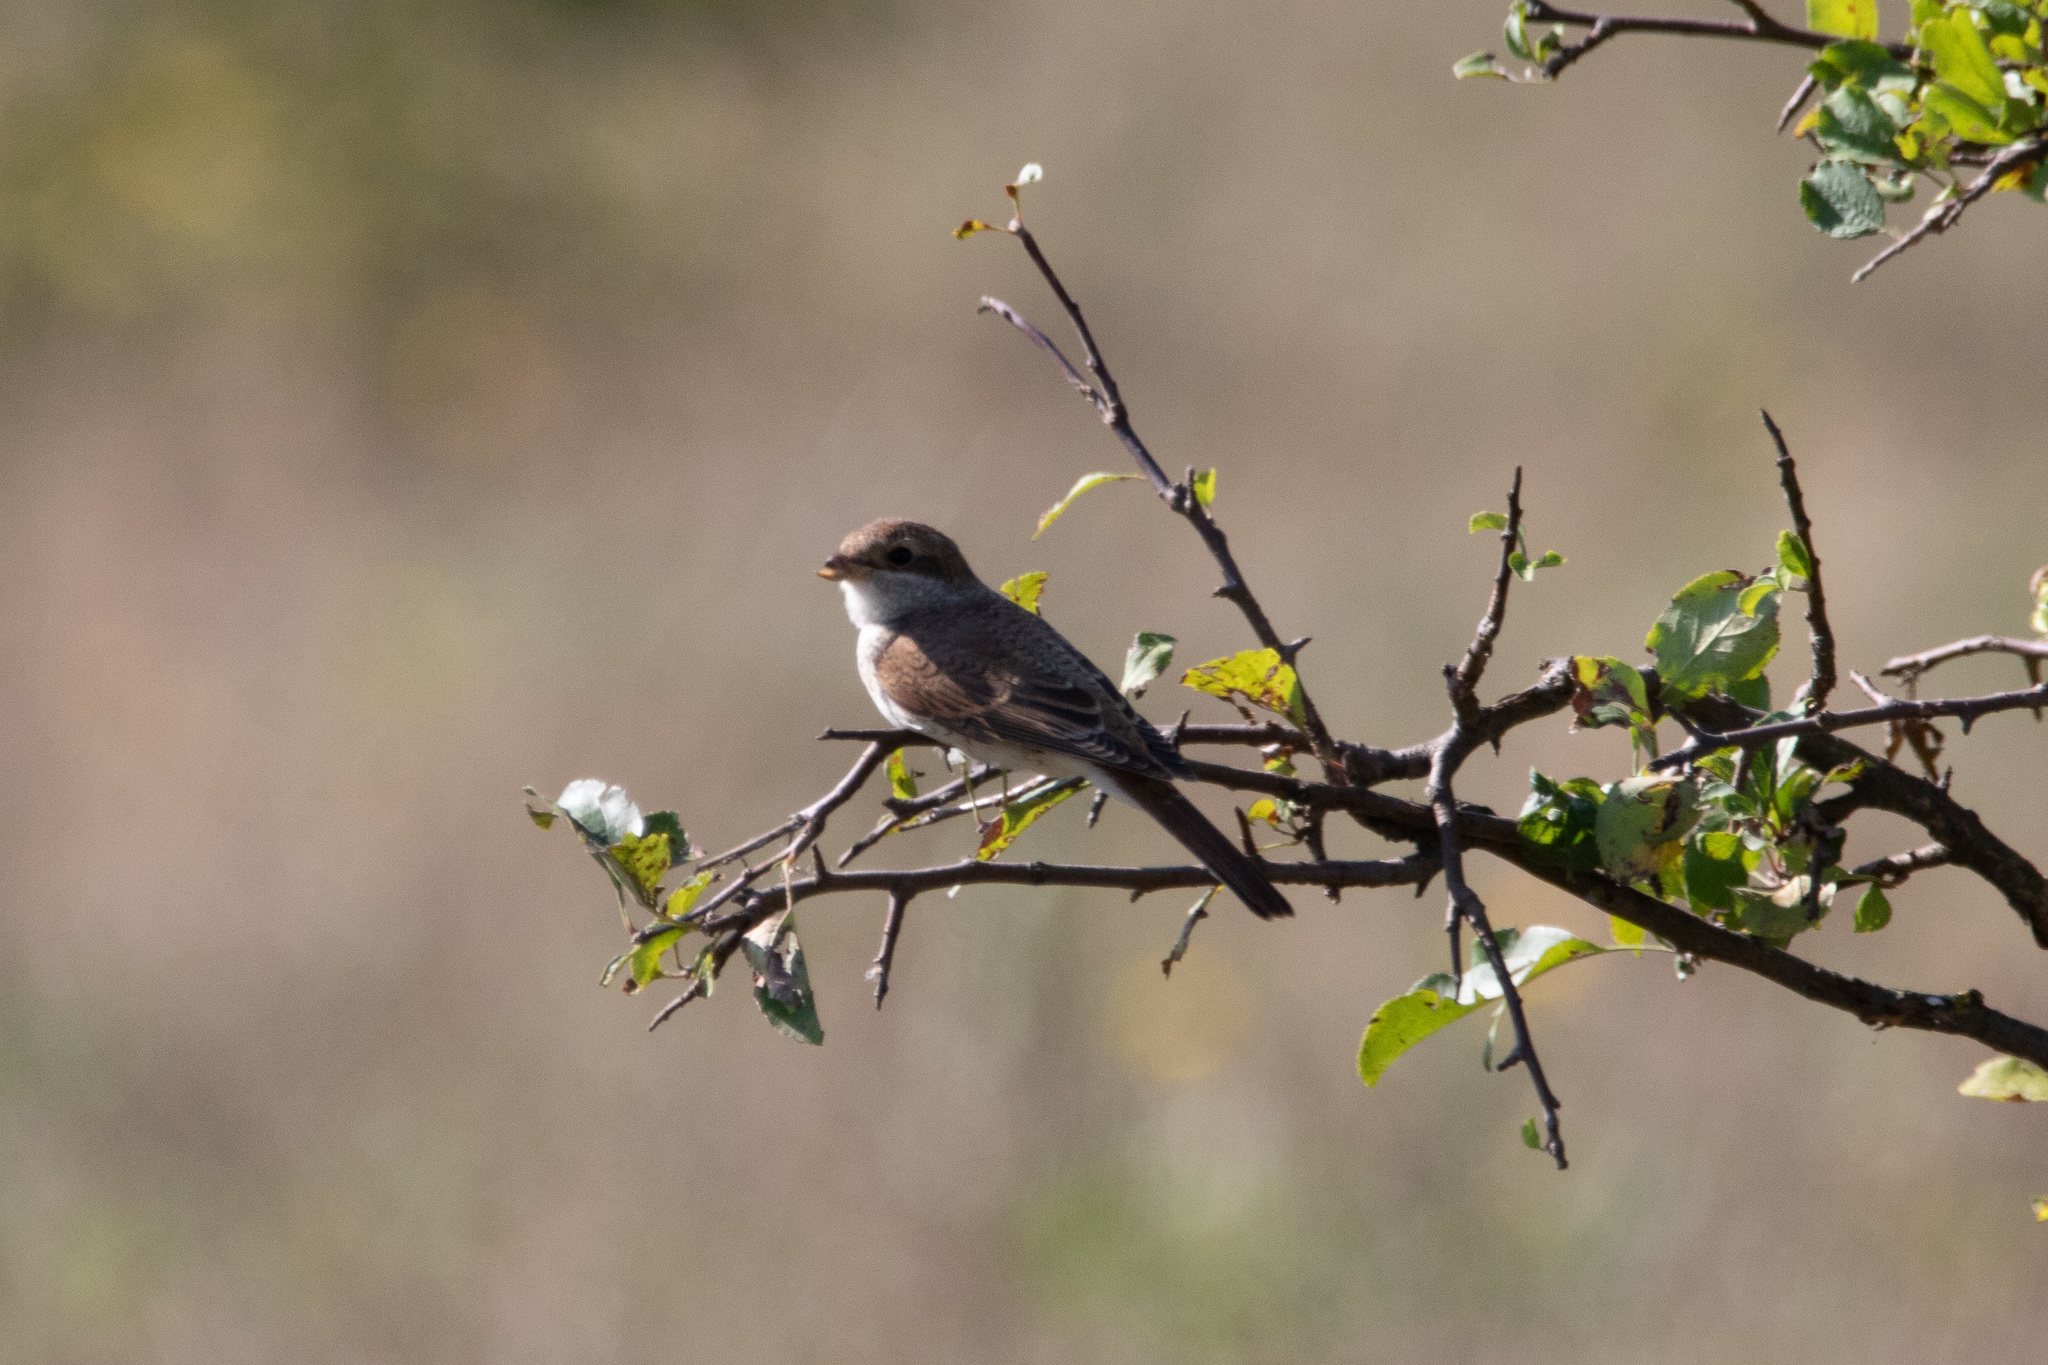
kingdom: Animalia
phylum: Chordata
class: Aves
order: Passeriformes
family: Laniidae
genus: Lanius
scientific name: Lanius collurio
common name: Red-backed shrike
